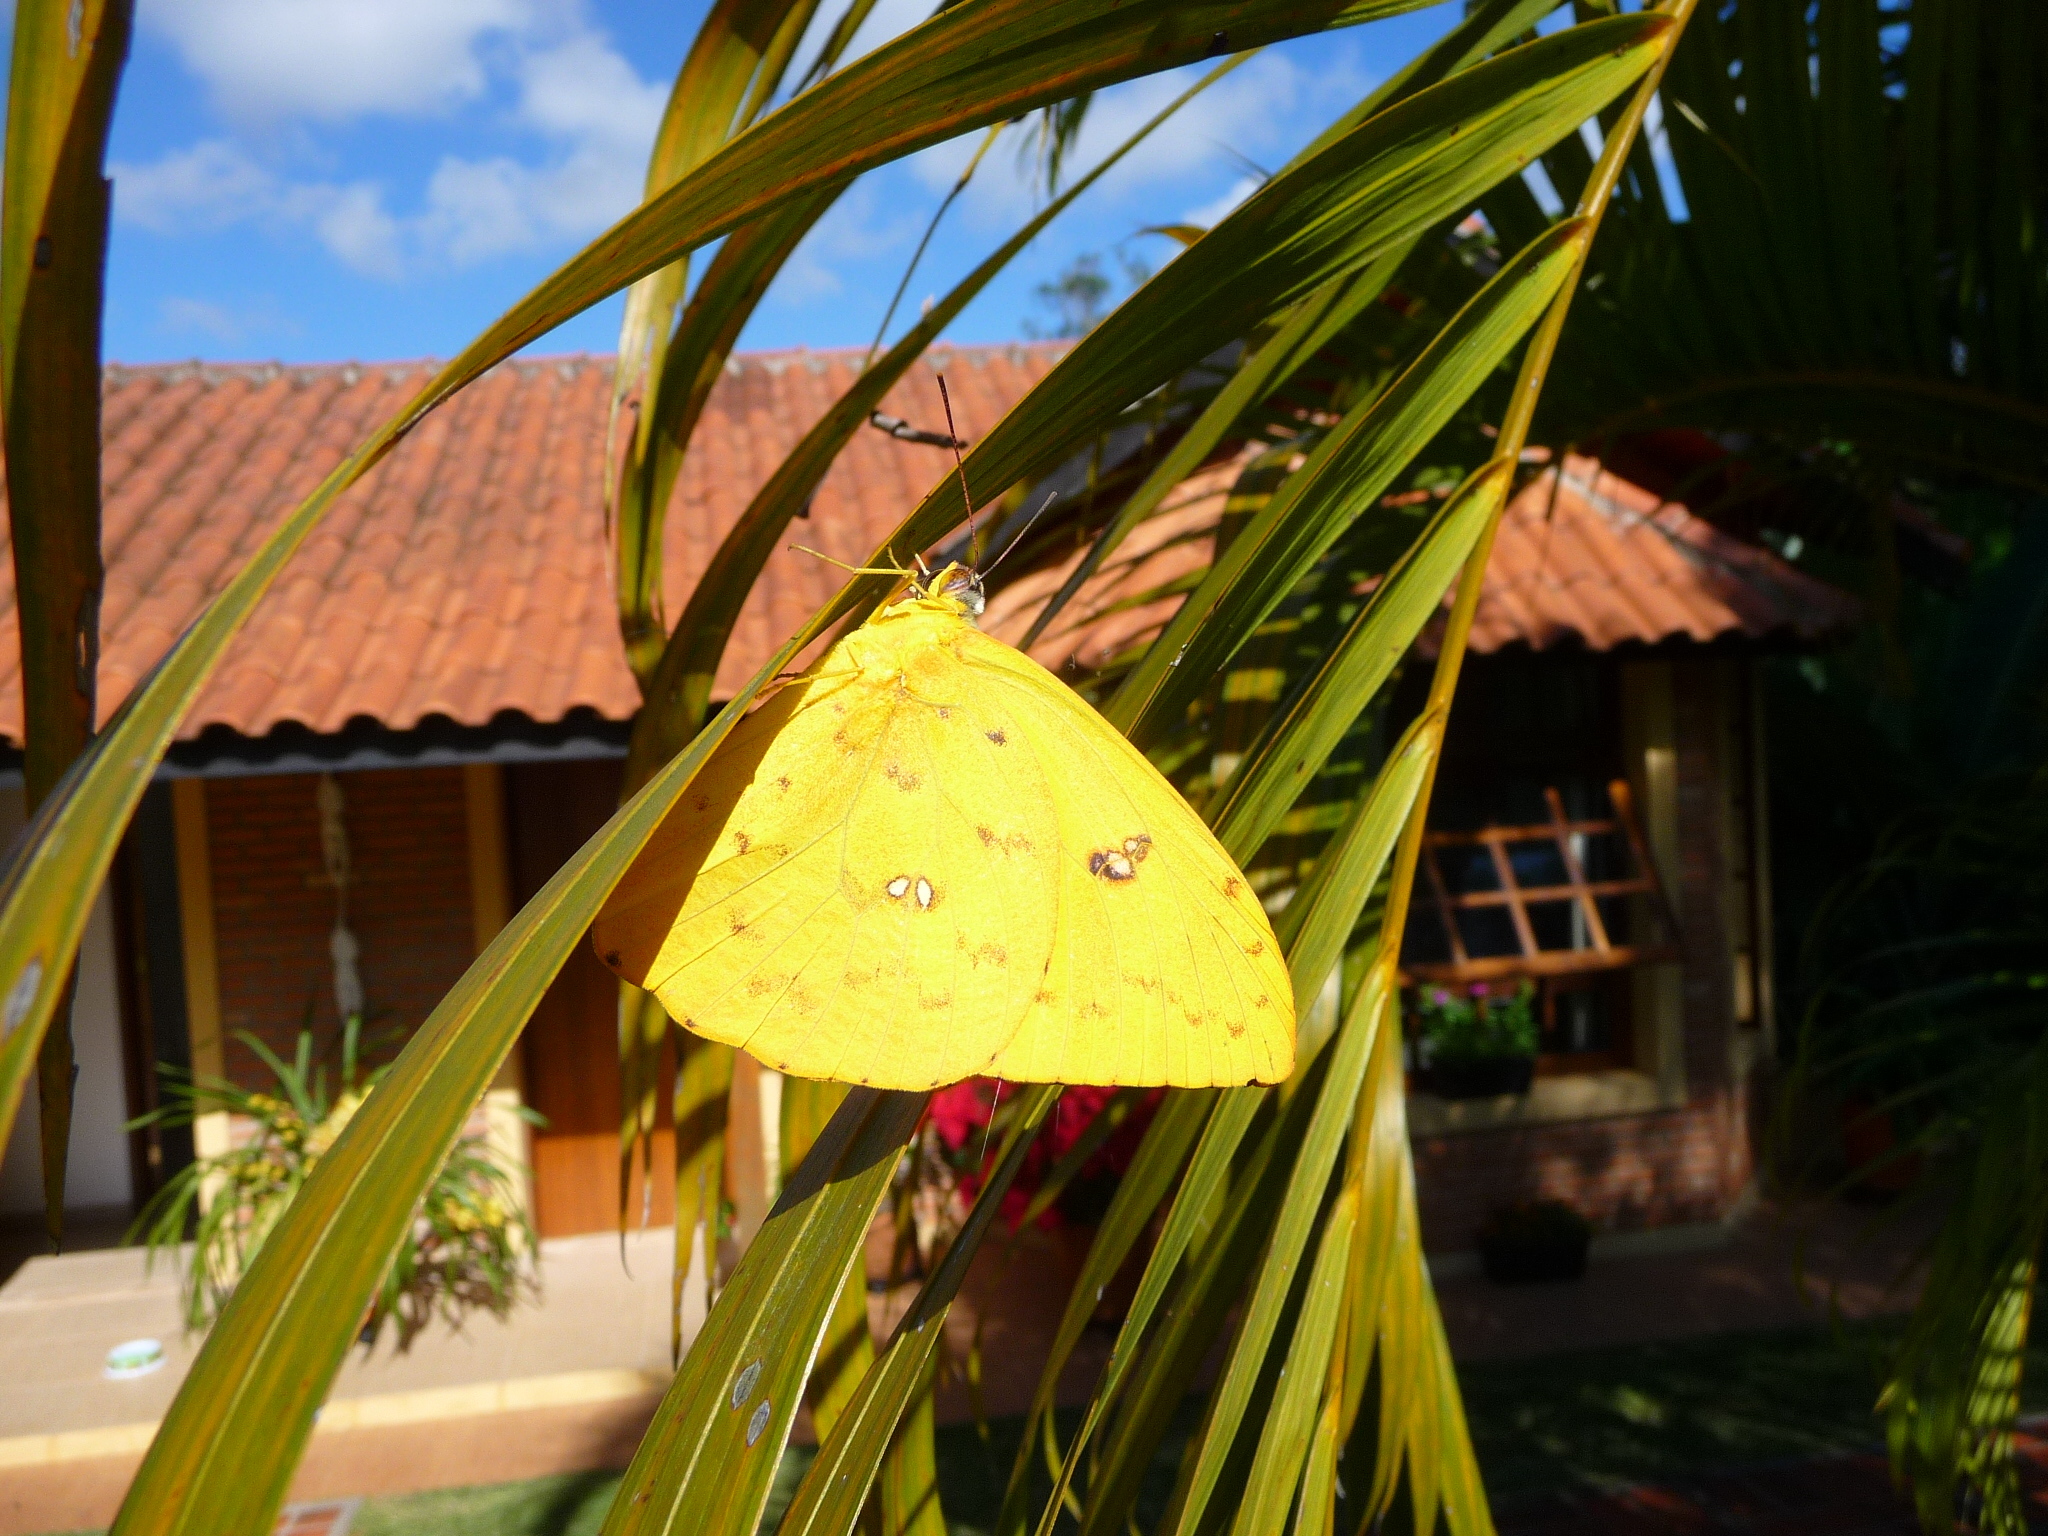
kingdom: Animalia
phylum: Arthropoda
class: Insecta
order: Lepidoptera
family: Pieridae
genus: Phoebis
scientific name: Phoebis philea
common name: Orange-barred giant sulphur
